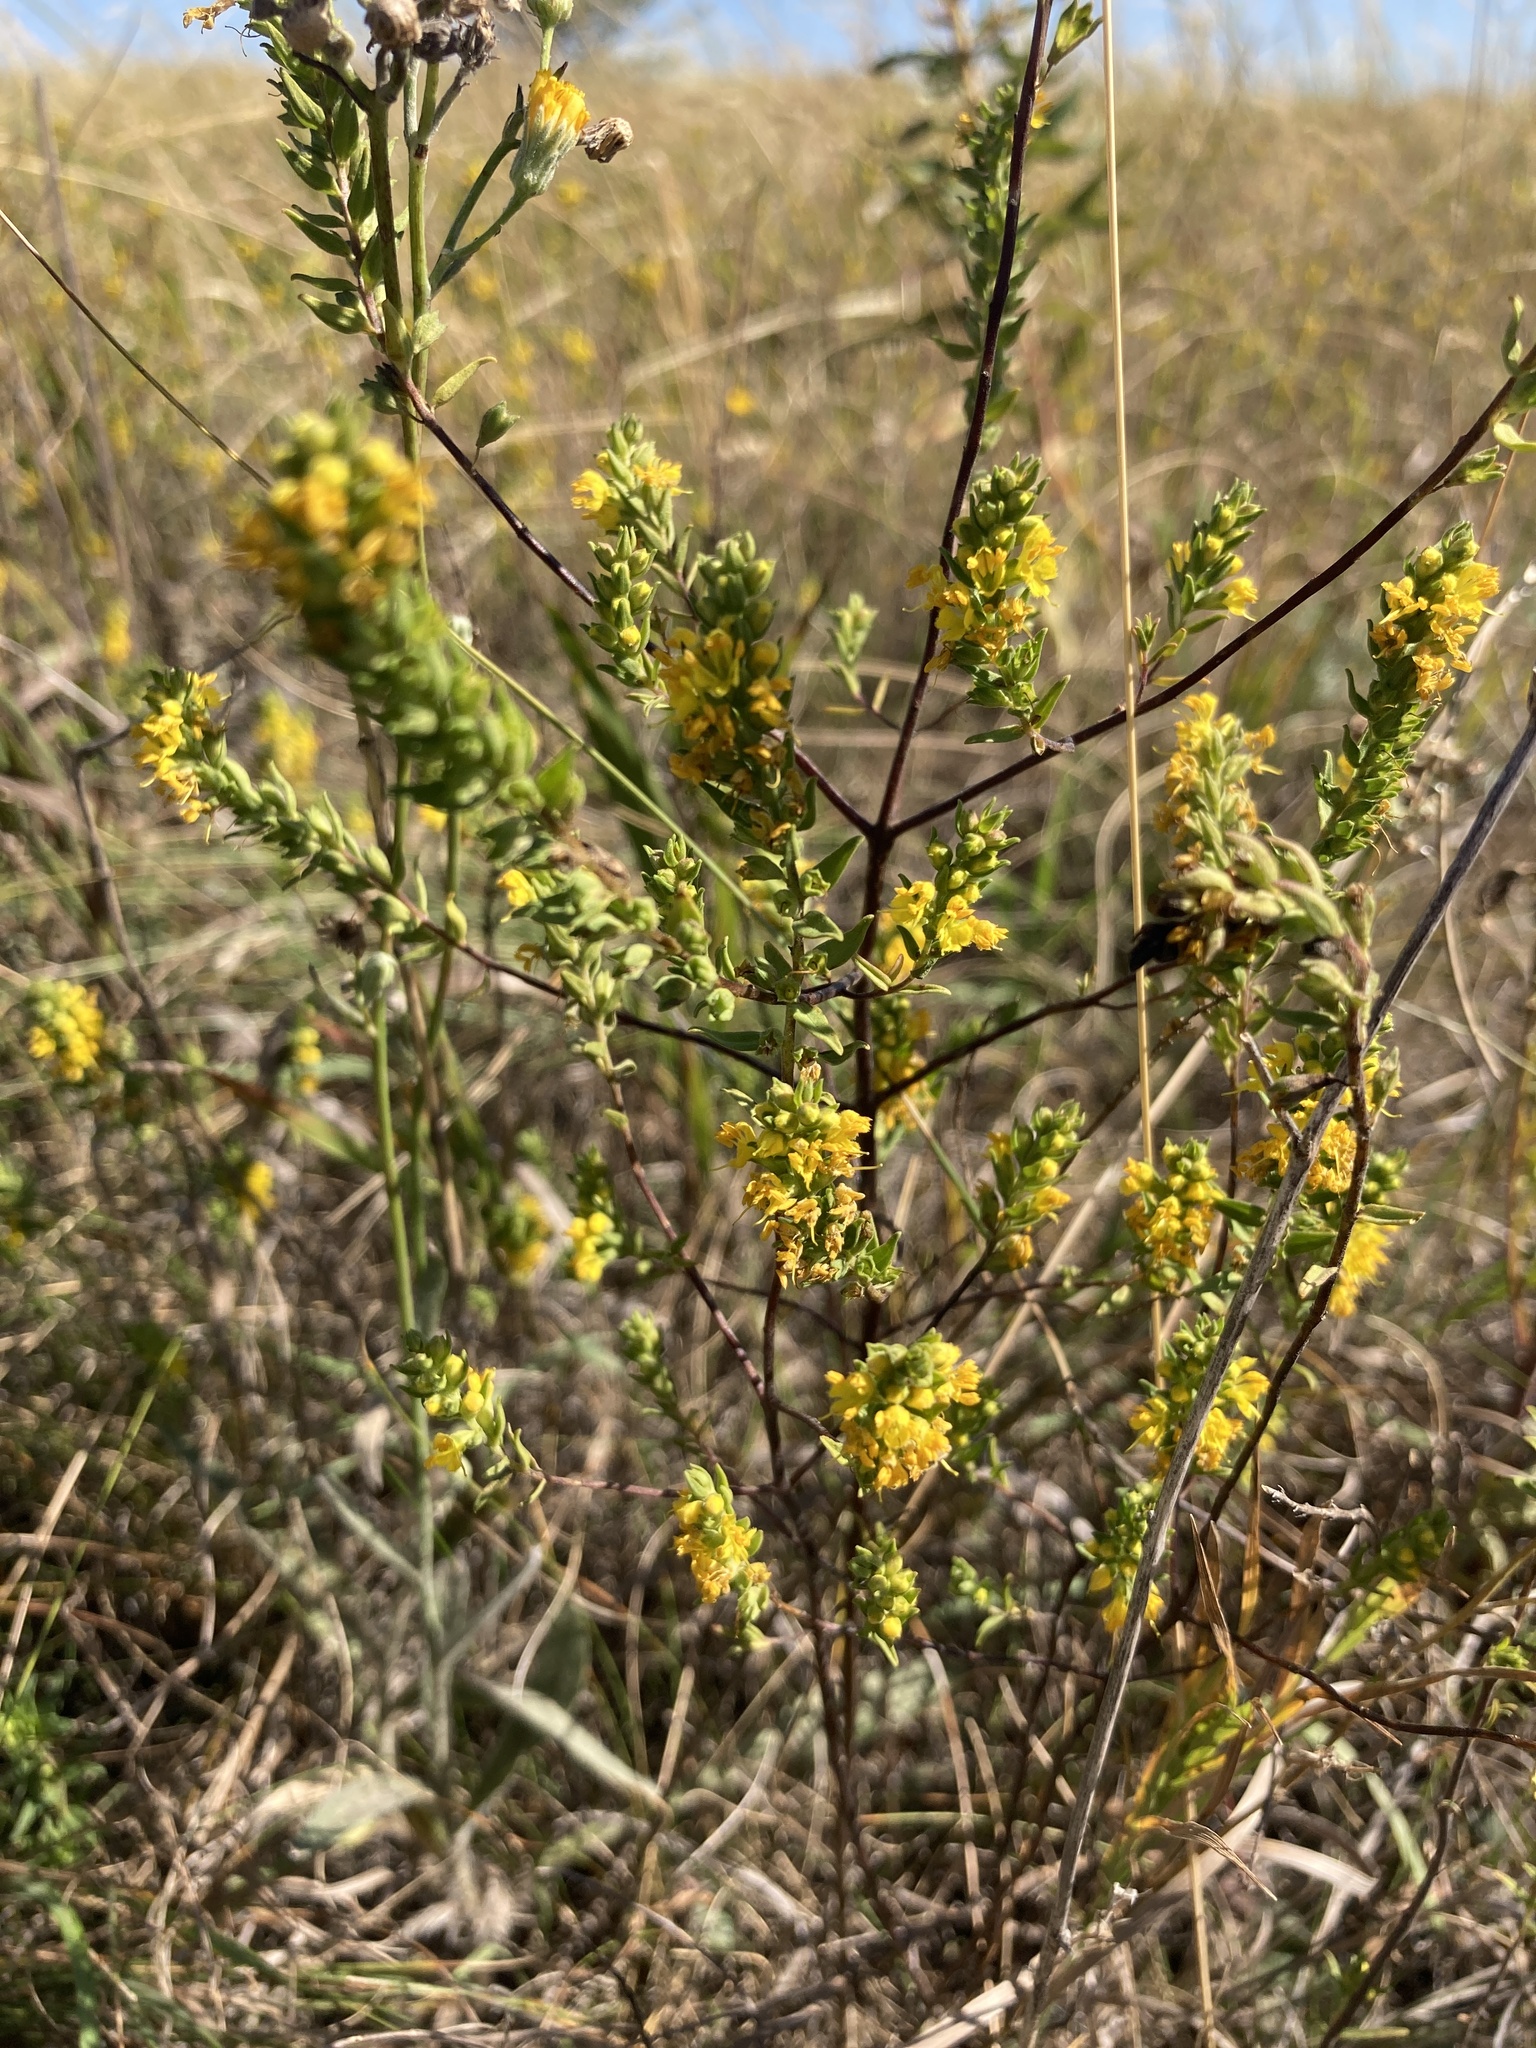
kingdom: Plantae
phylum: Tracheophyta
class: Magnoliopsida
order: Lamiales
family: Orobanchaceae
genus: Odontites
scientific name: Odontites luteus
